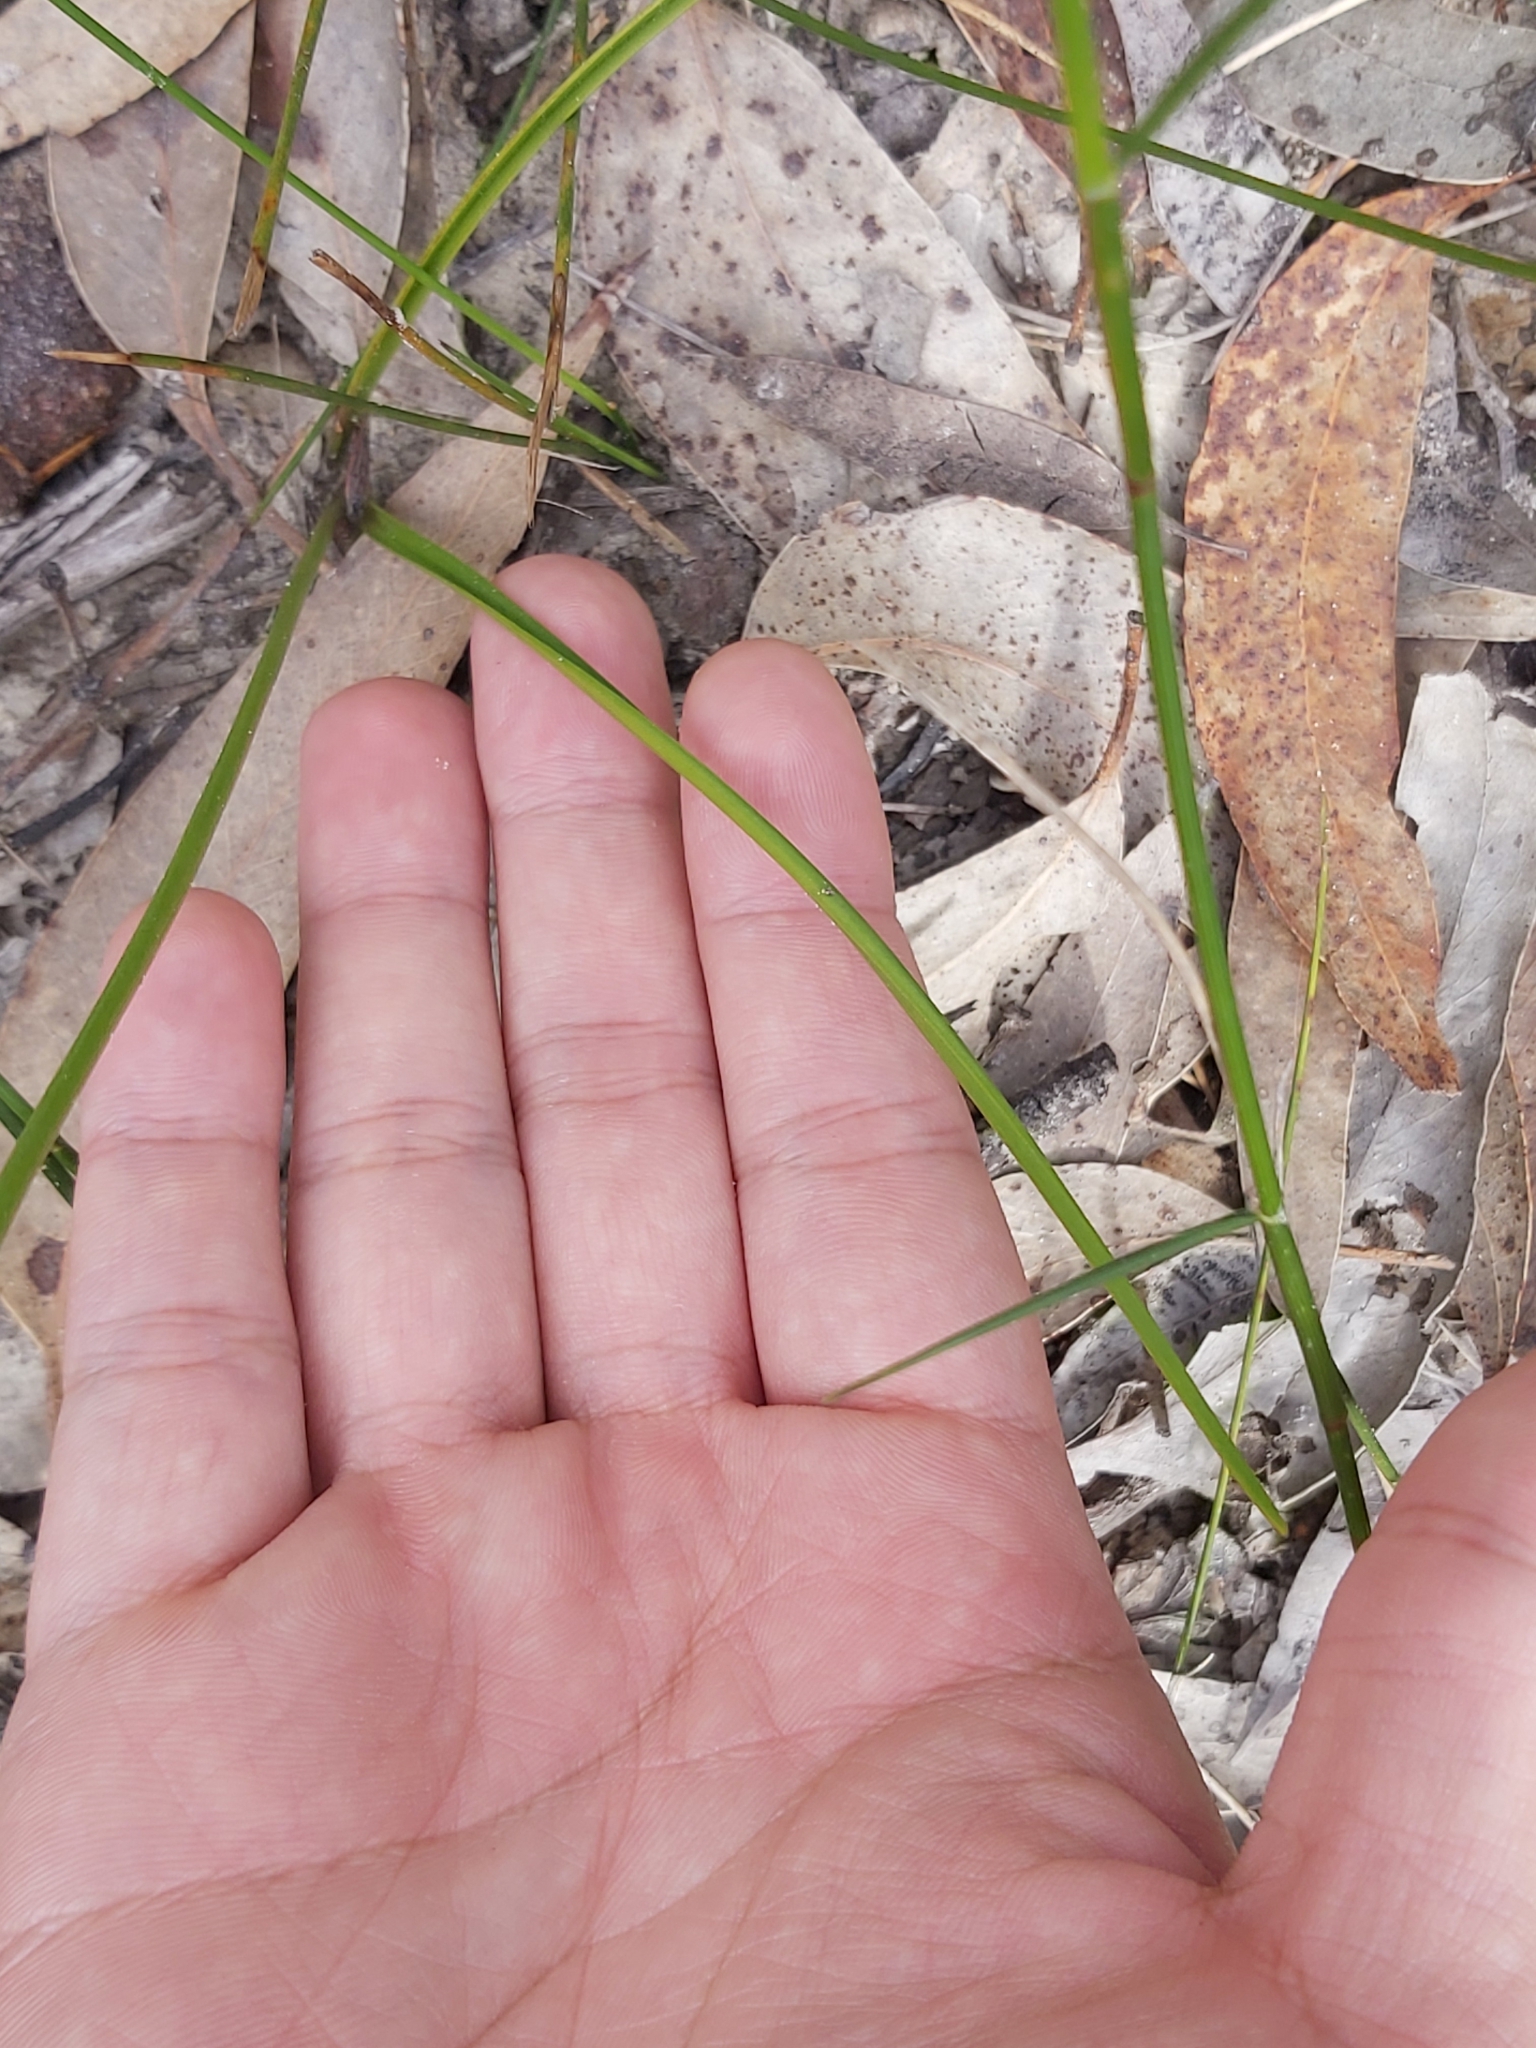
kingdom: Plantae
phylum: Tracheophyta
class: Liliopsida
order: Liliales
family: Colchicaceae
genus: Burchardia
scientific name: Burchardia umbellata
